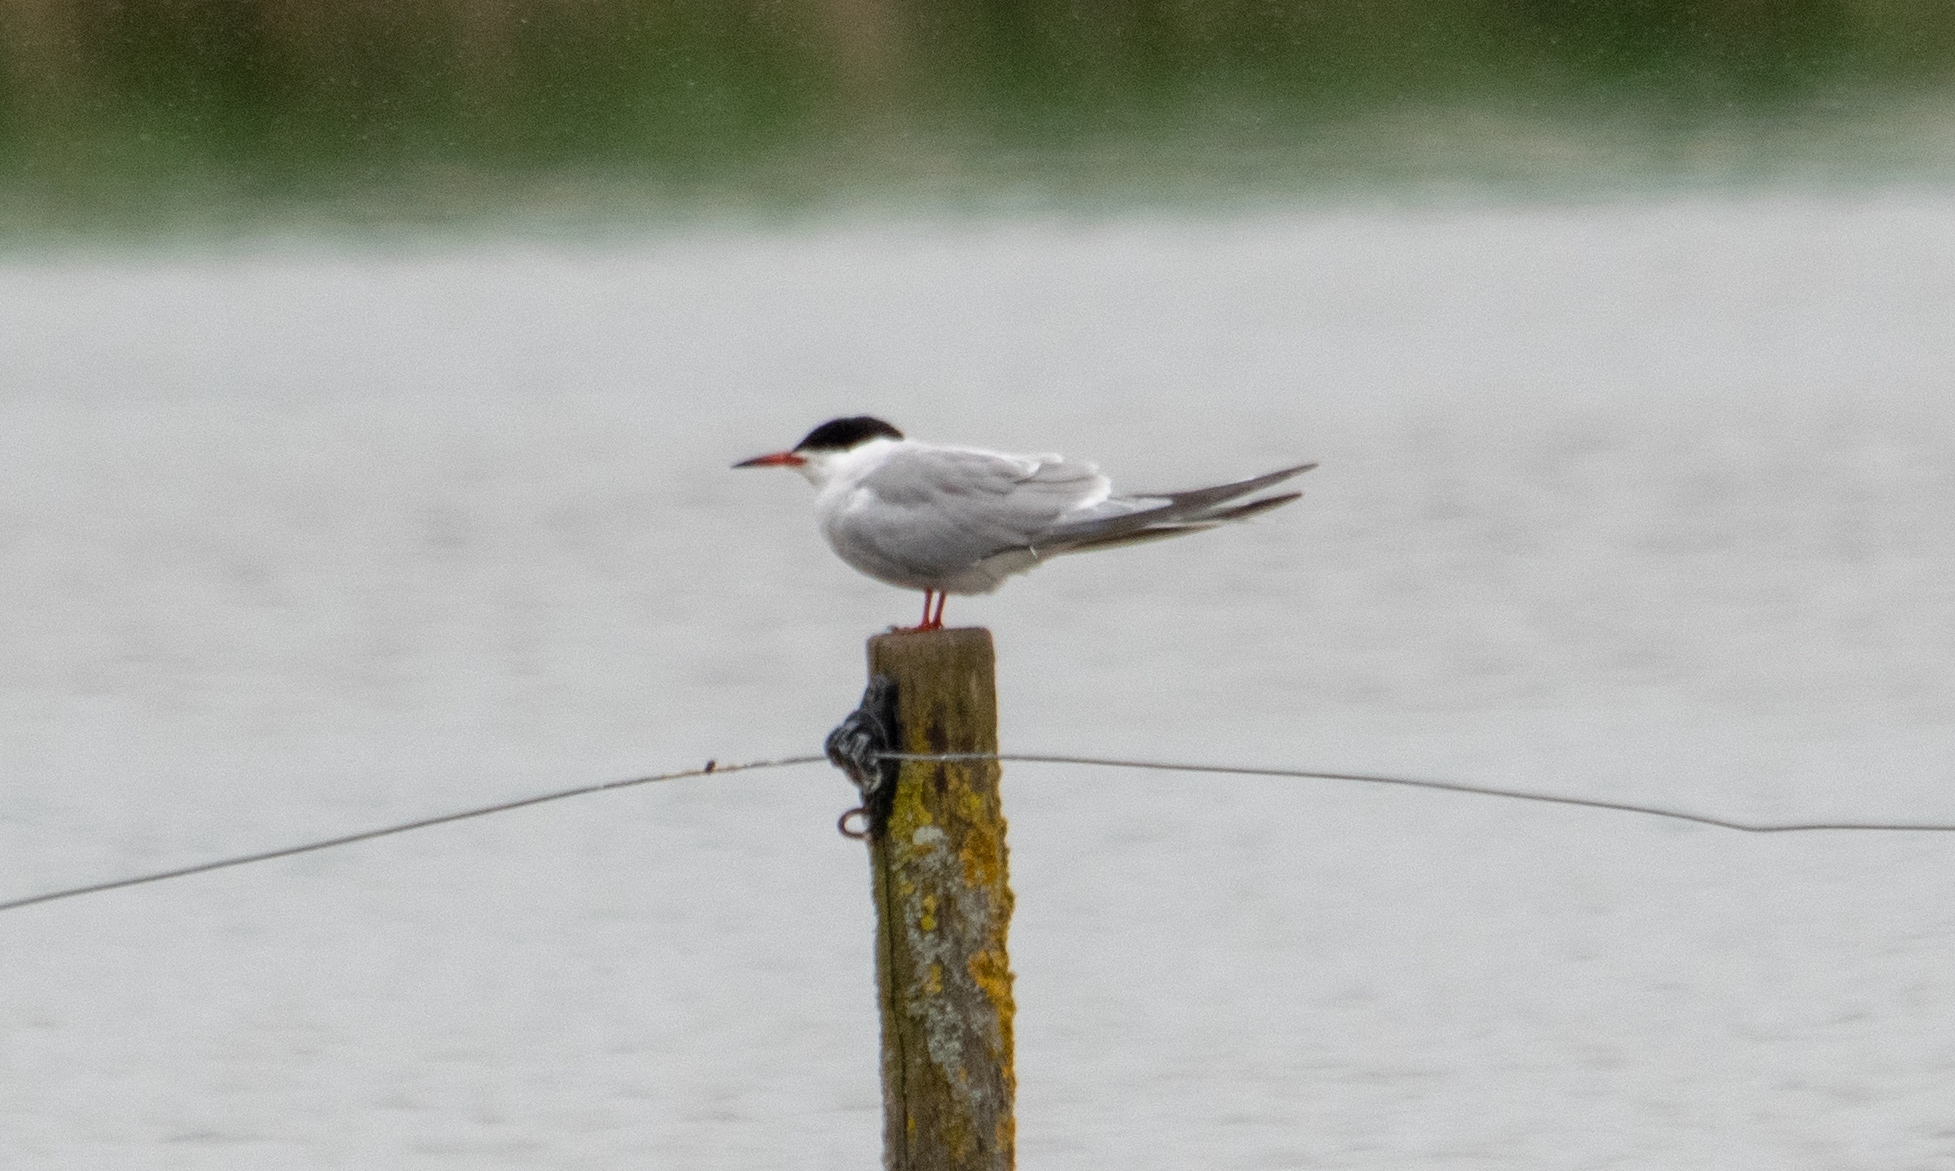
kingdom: Animalia
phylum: Chordata
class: Aves
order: Charadriiformes
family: Laridae
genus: Sterna
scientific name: Sterna hirundo
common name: Common tern
